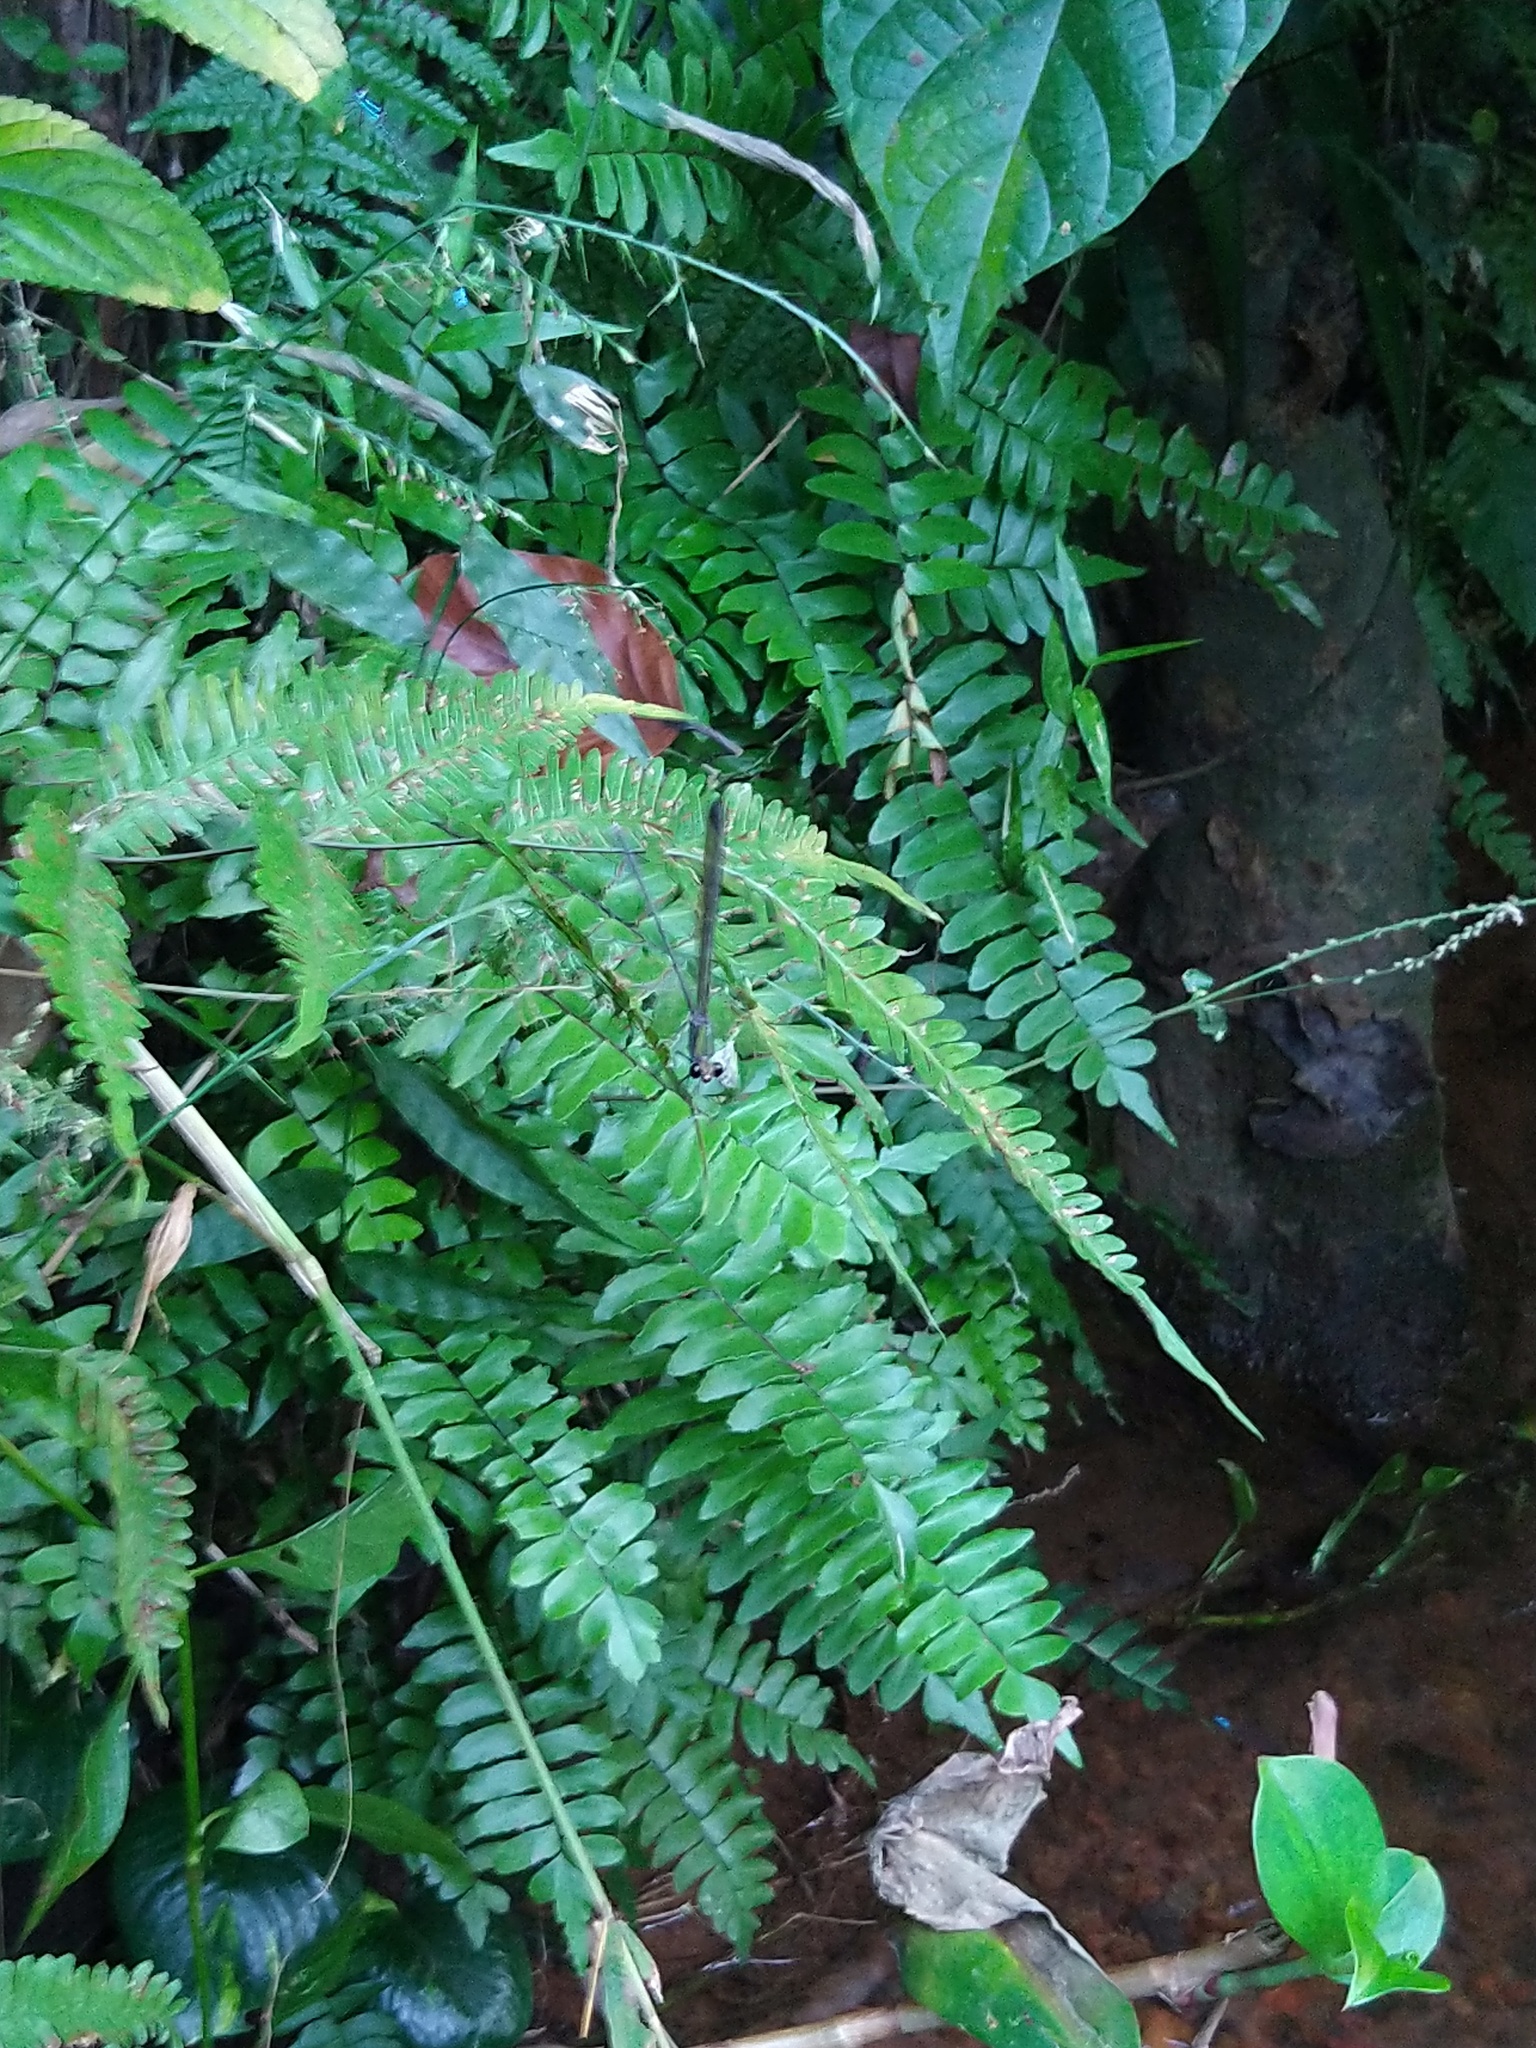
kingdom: Animalia
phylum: Arthropoda
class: Insecta
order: Odonata
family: Calopterygidae
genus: Vestalis
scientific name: Vestalis apicalis
